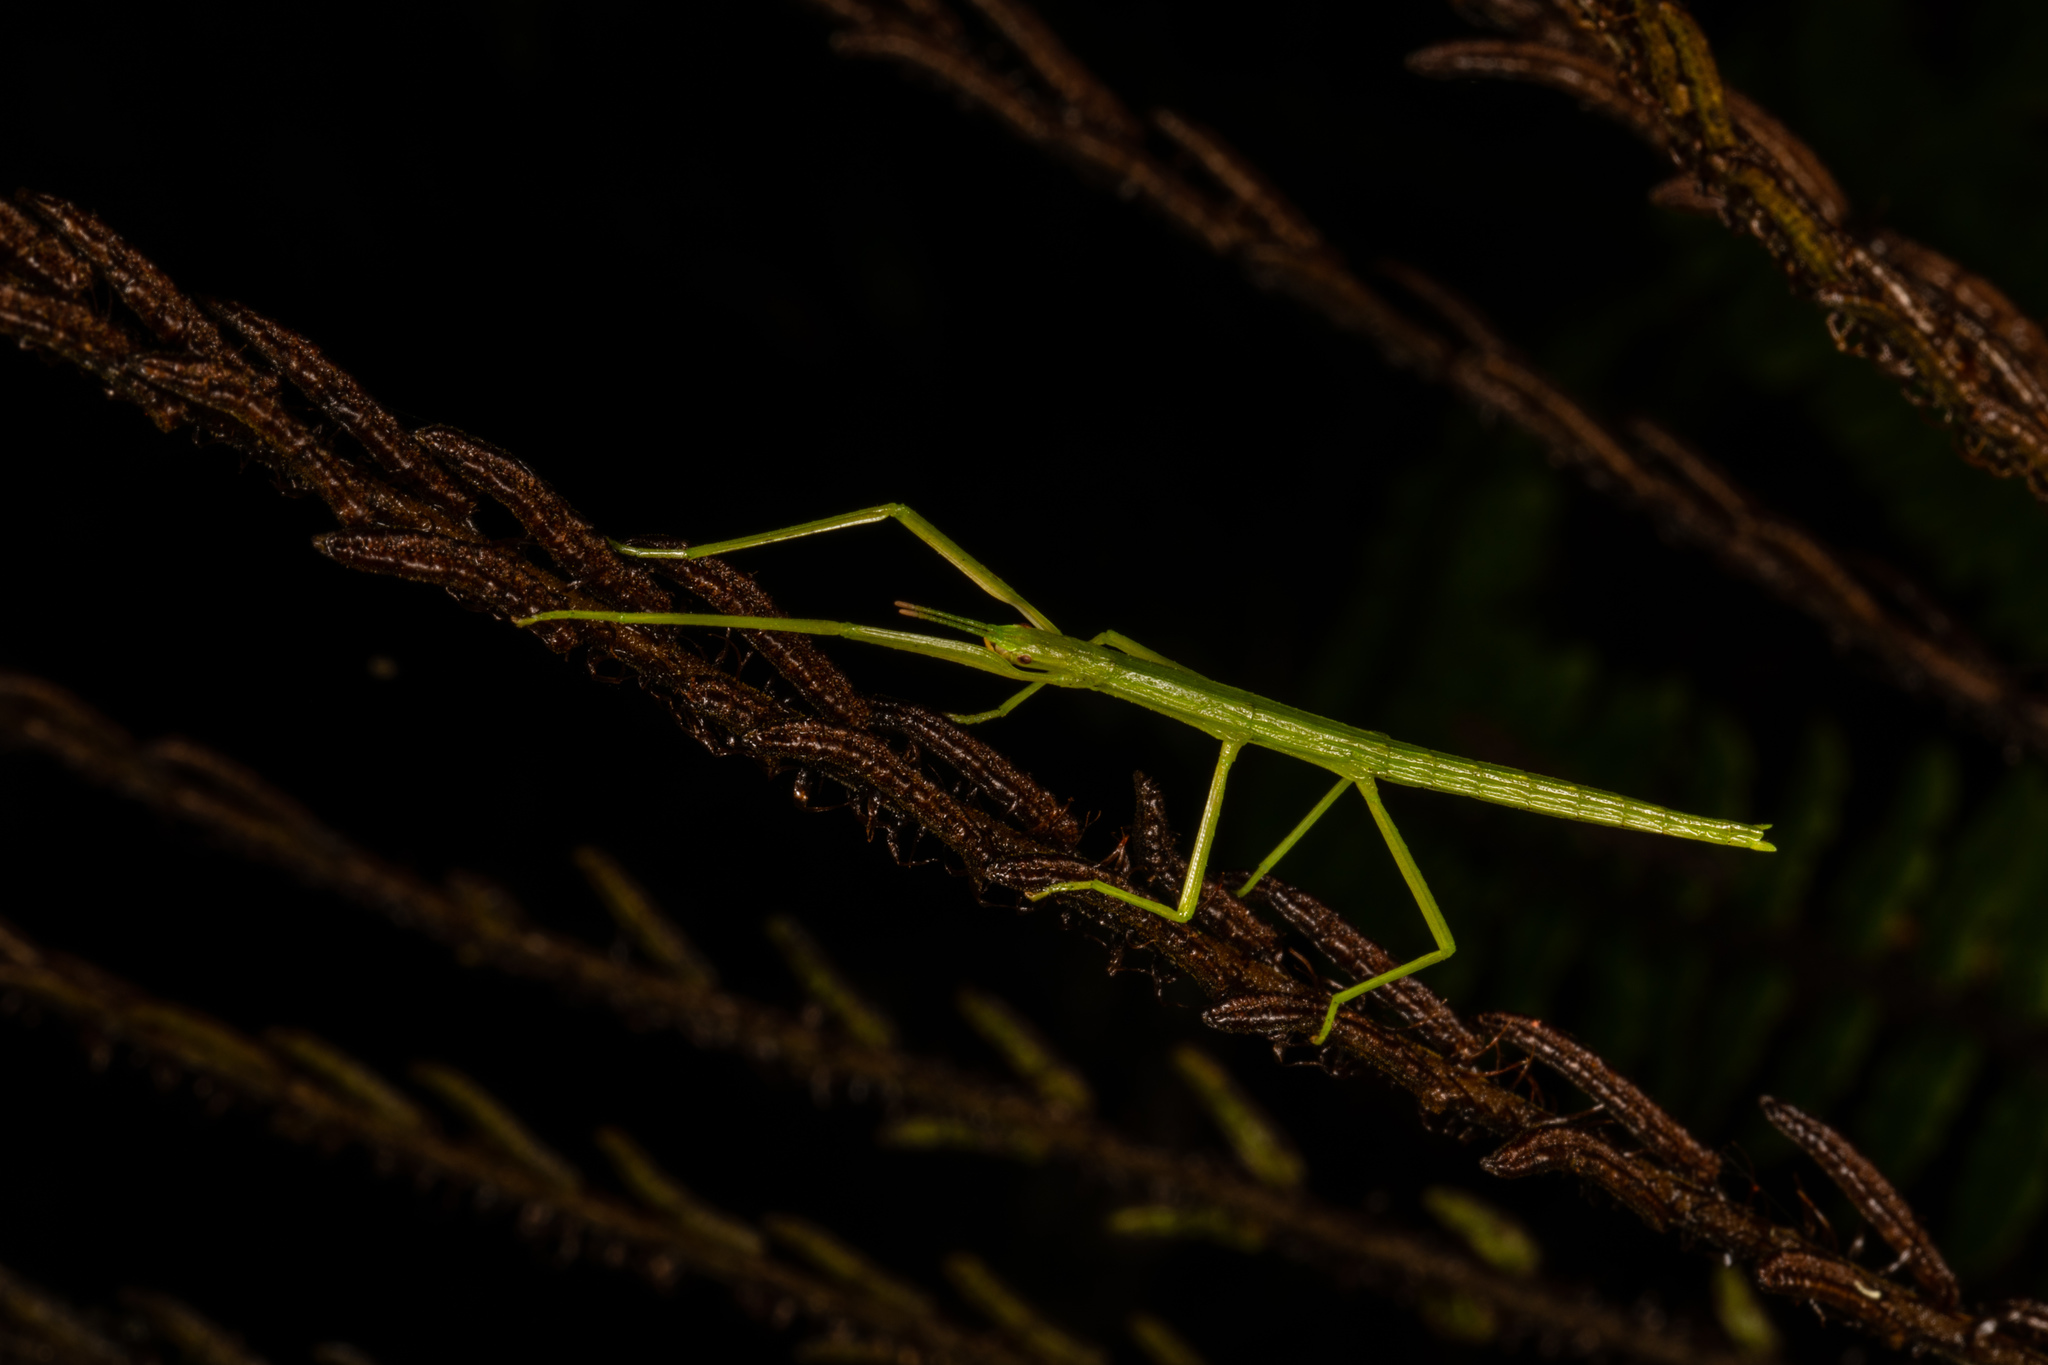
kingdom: Animalia
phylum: Arthropoda
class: Insecta
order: Phasmida
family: Phasmatidae
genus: Tectarchus
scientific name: Tectarchus ovobessus
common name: The rough-skinned ridge-backed stick insect
